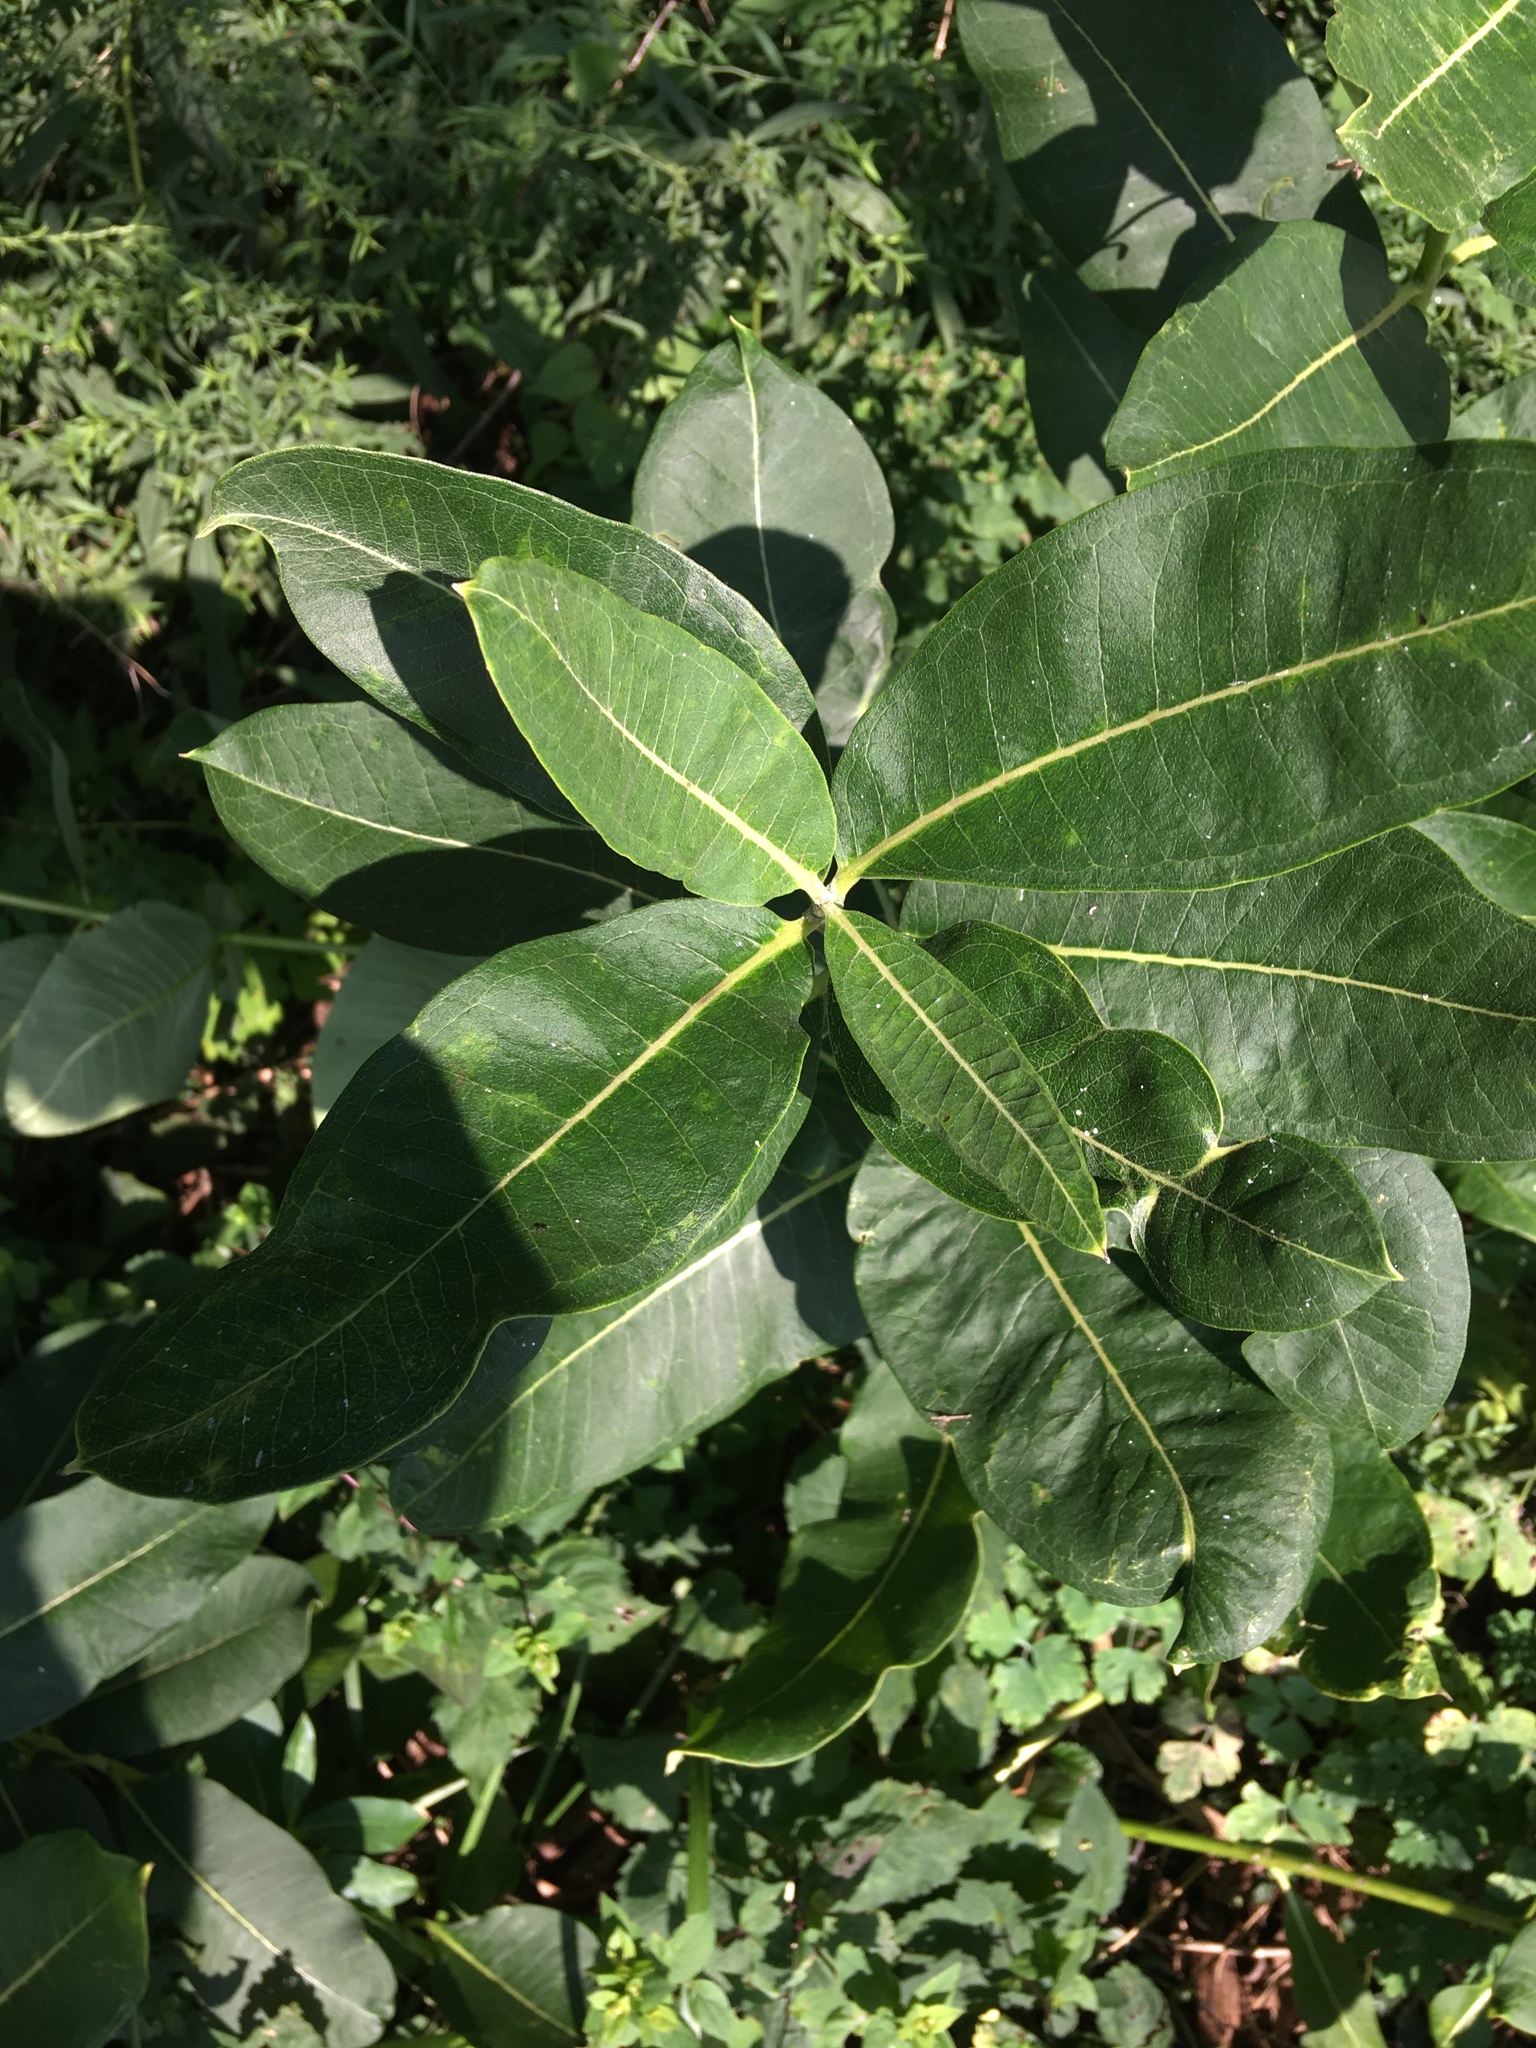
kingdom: Plantae
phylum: Tracheophyta
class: Magnoliopsida
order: Gentianales
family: Apocynaceae
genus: Asclepias
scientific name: Asclepias syriaca
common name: Common milkweed
